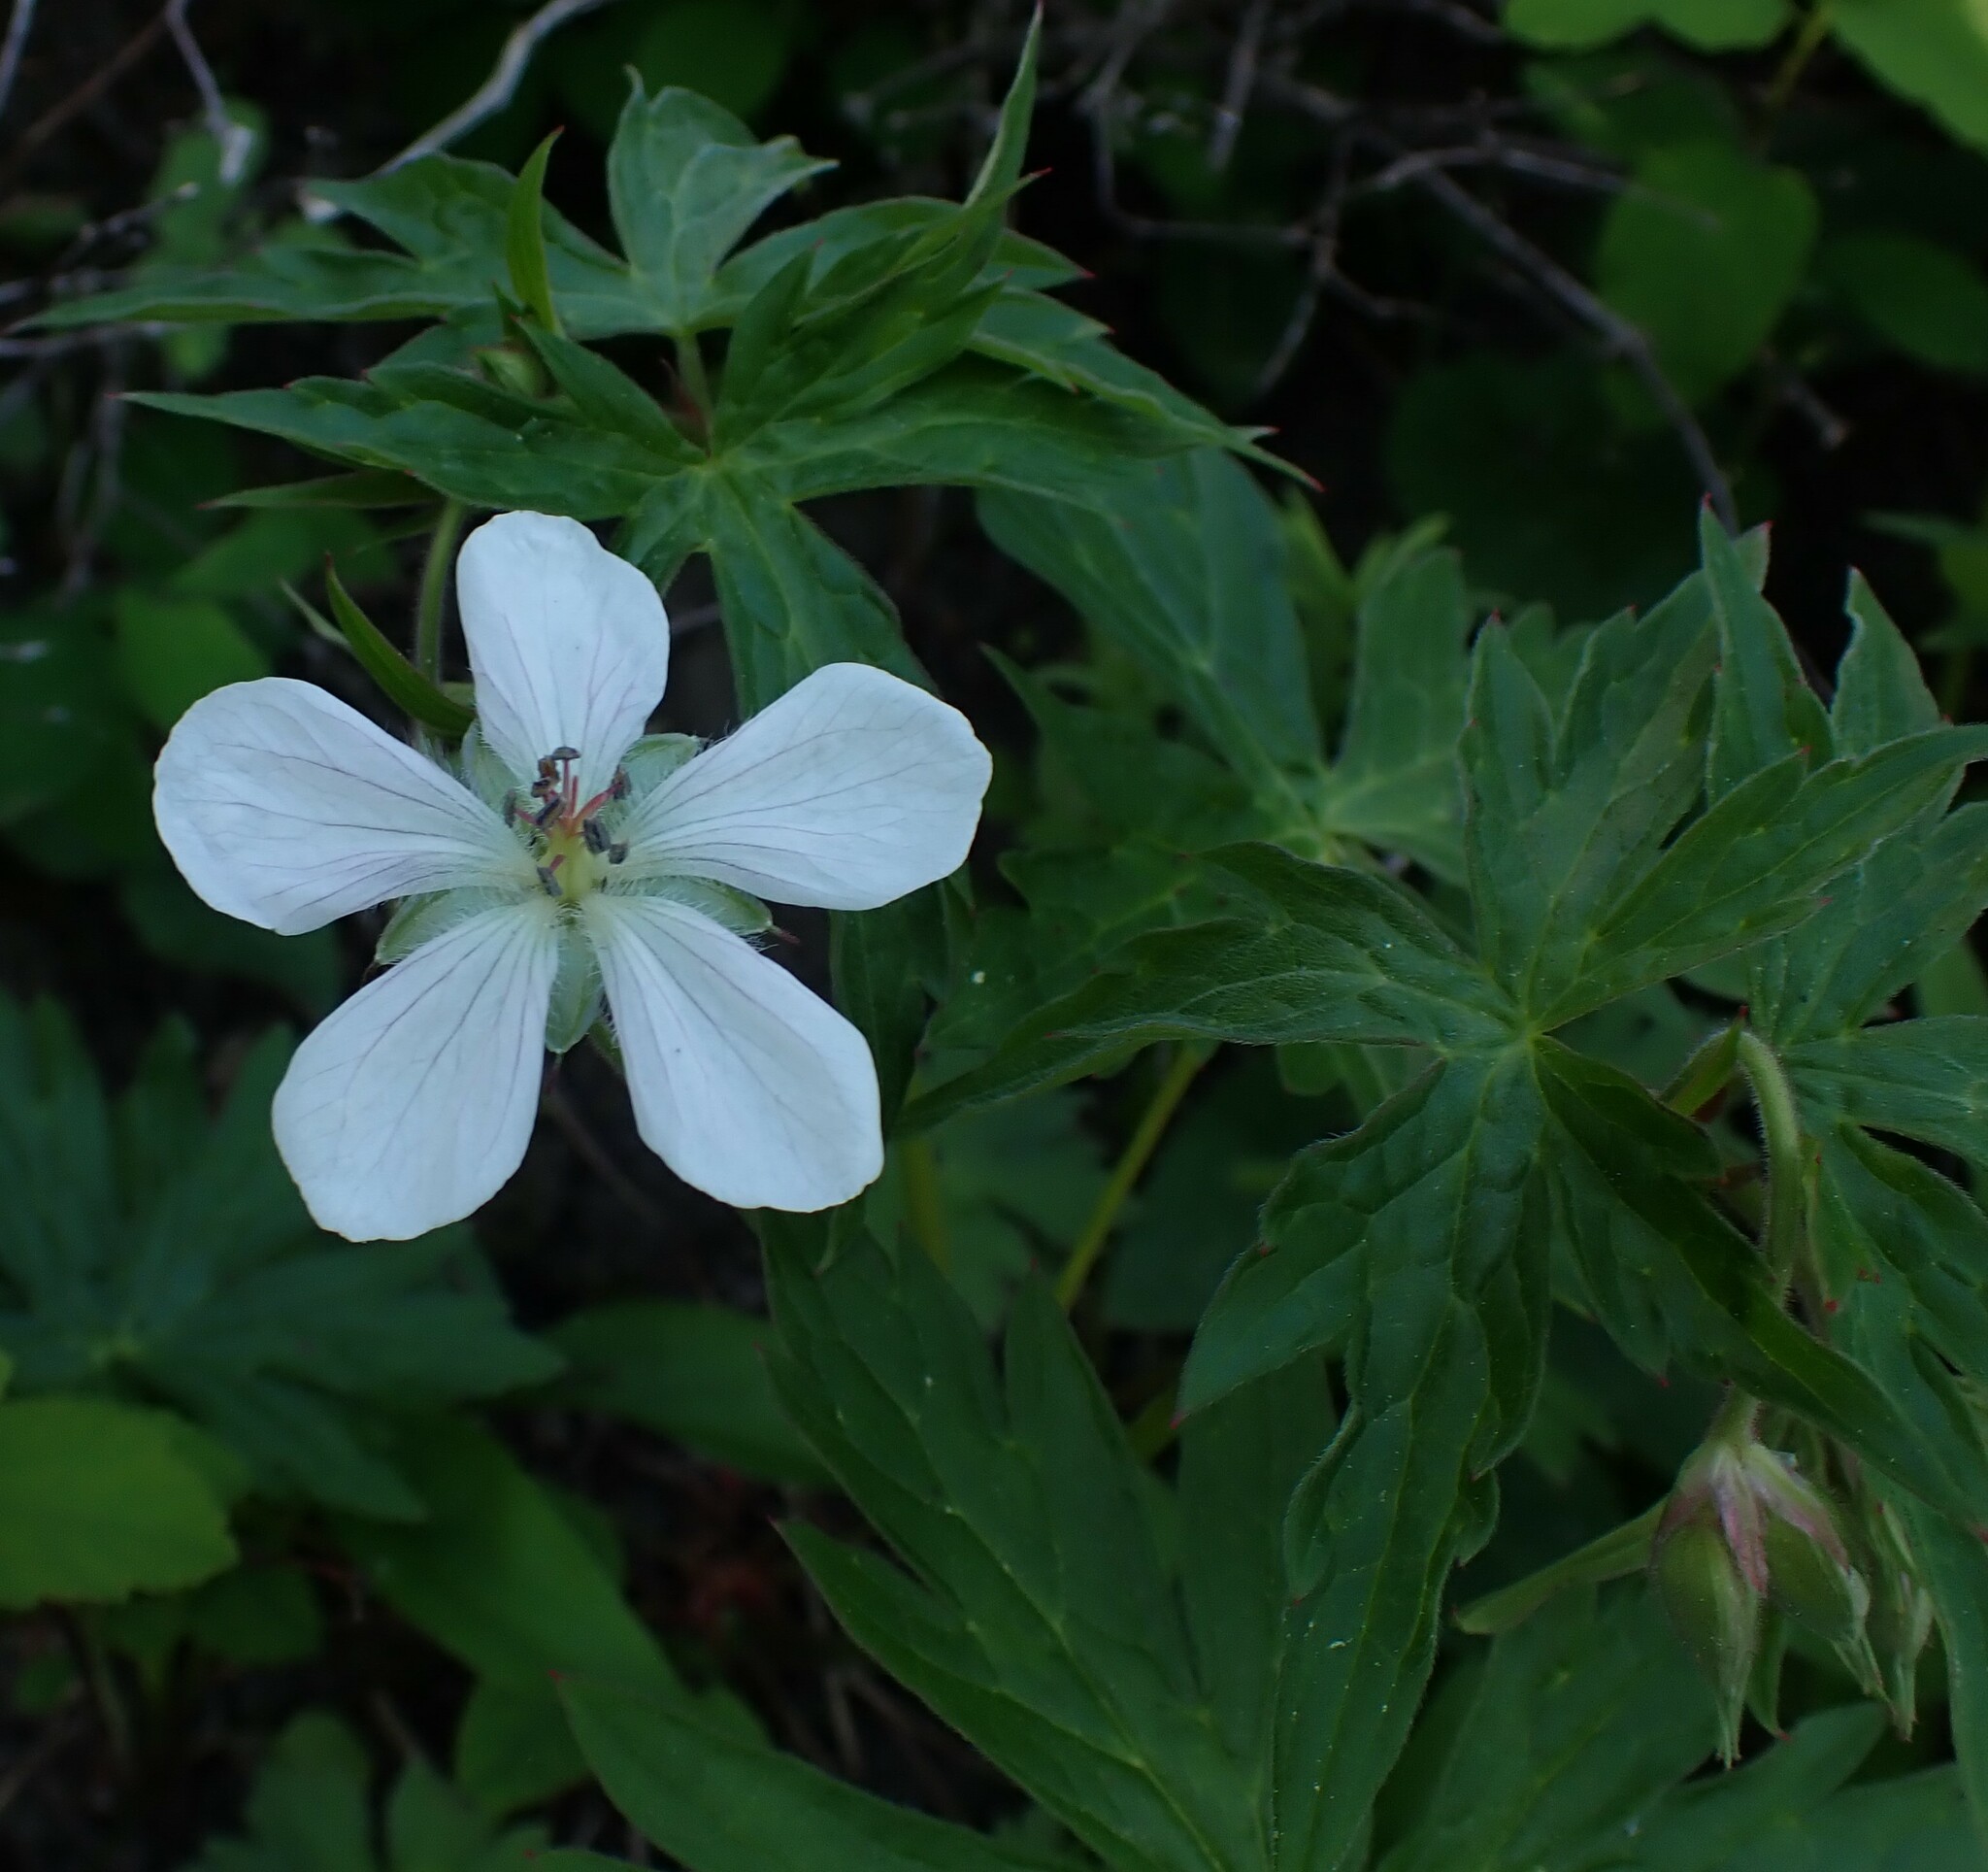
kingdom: Plantae
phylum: Tracheophyta
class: Magnoliopsida
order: Geraniales
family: Geraniaceae
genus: Geranium
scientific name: Geranium richardsonii
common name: Richardson's crane's-bill
